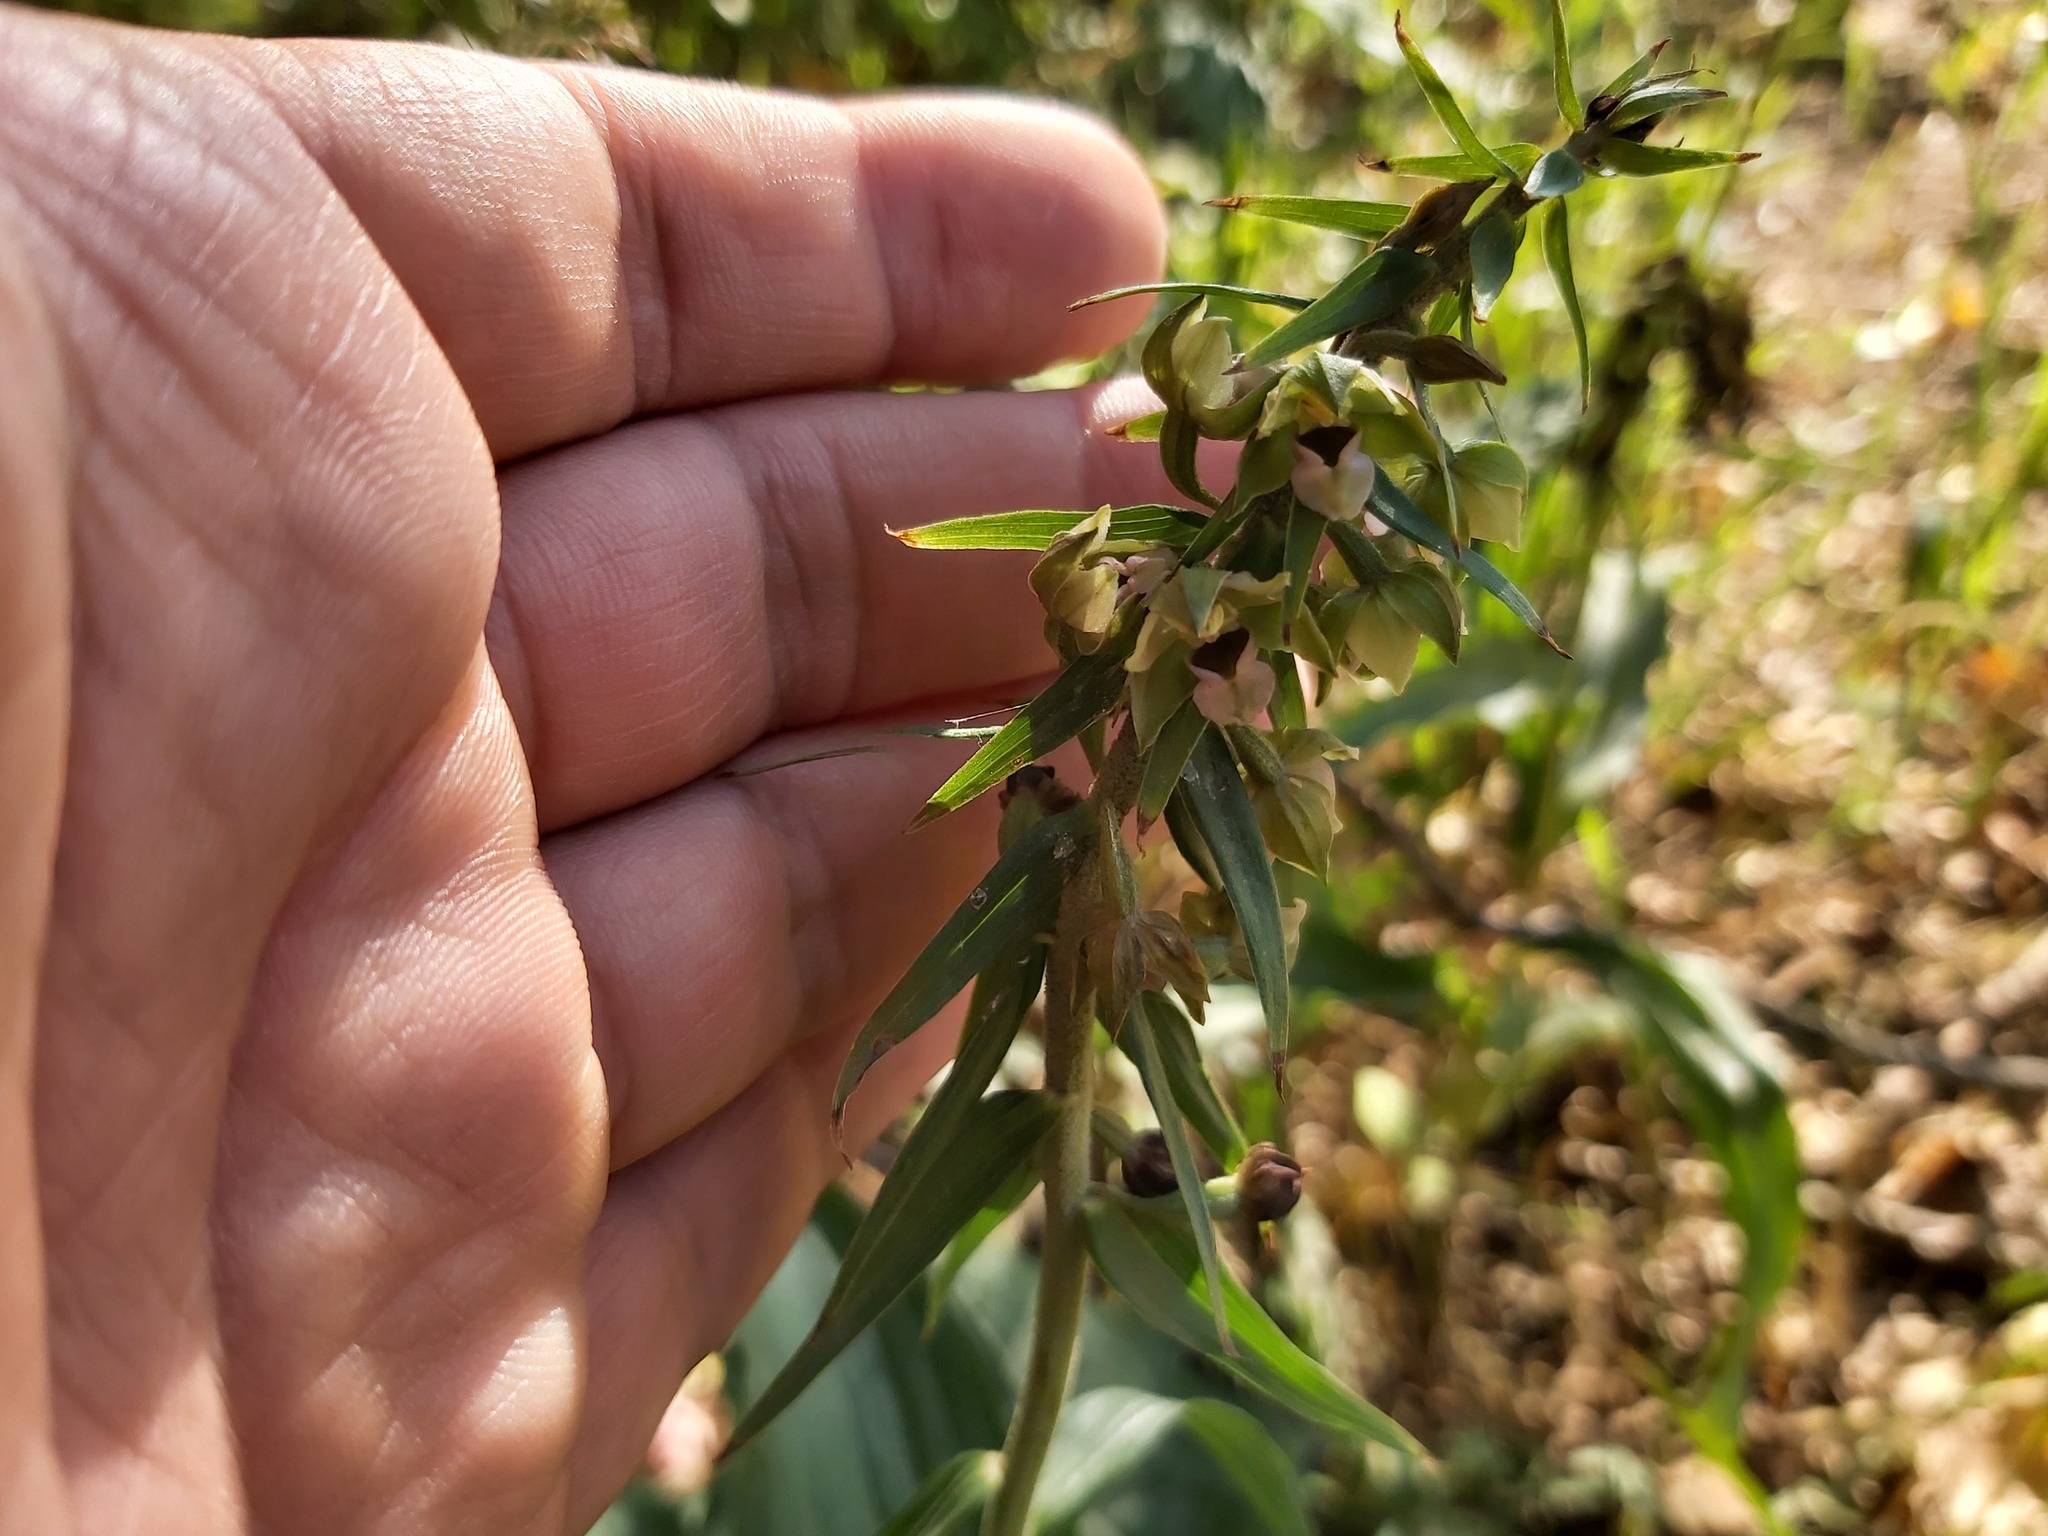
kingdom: Plantae
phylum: Tracheophyta
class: Liliopsida
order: Asparagales
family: Orchidaceae
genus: Epipactis
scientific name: Epipactis helleborine
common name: Broad-leaved helleborine
